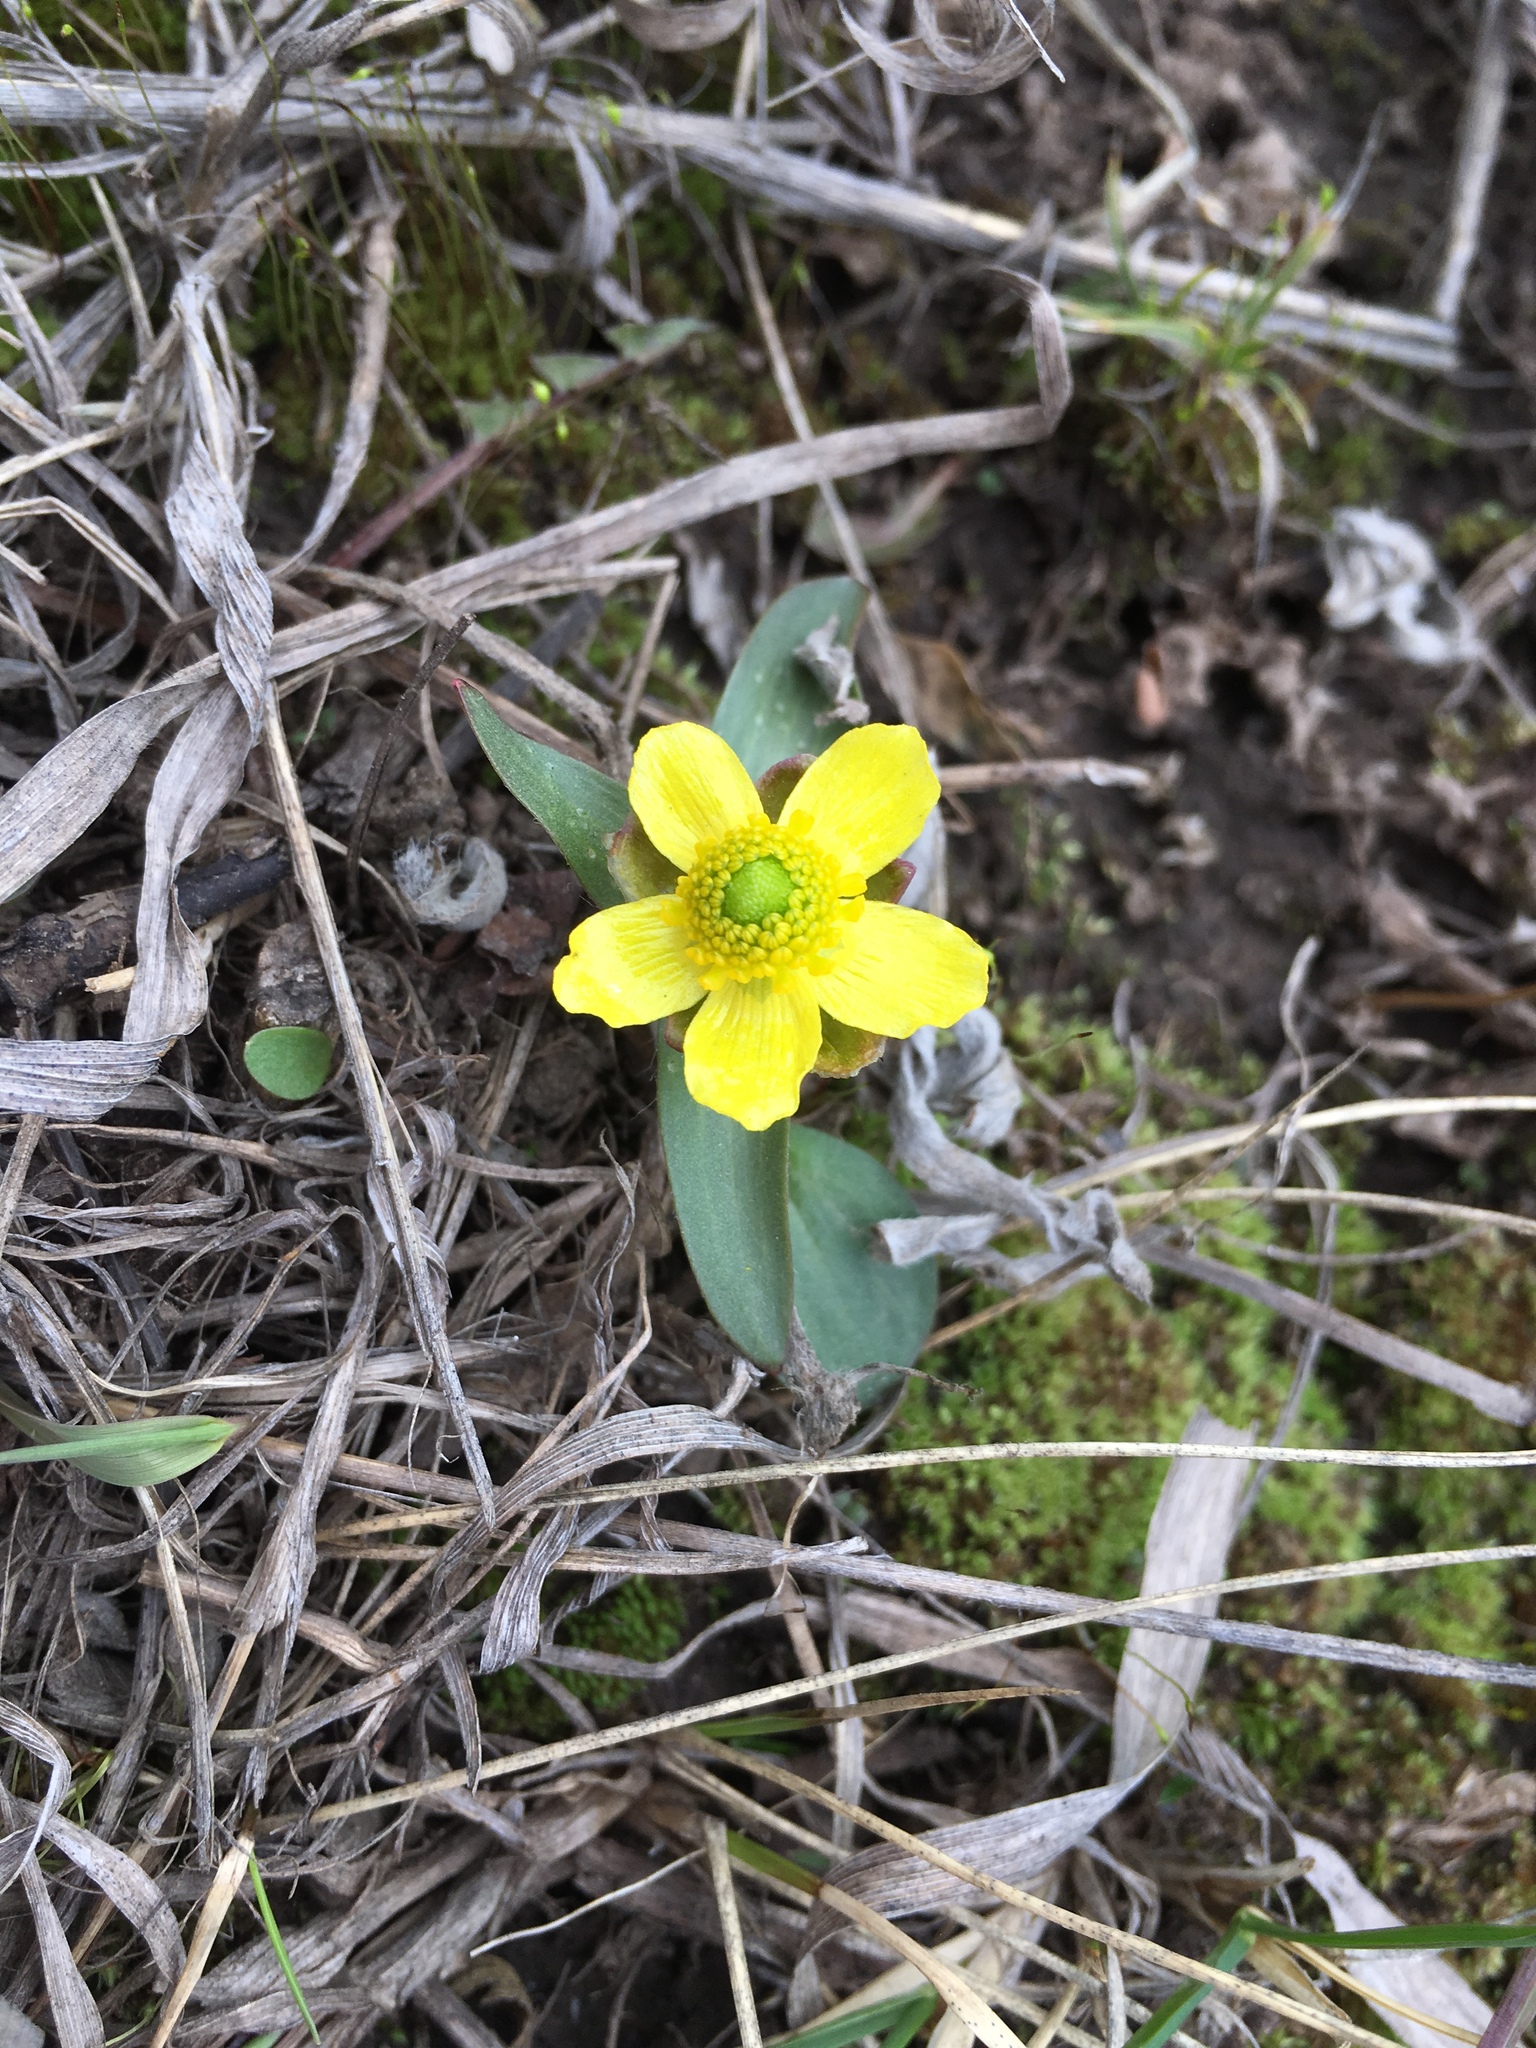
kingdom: Plantae
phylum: Tracheophyta
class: Magnoliopsida
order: Ranunculales
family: Ranunculaceae
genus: Ranunculus
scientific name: Ranunculus glaberrimus
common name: Sagebrush buttercup
